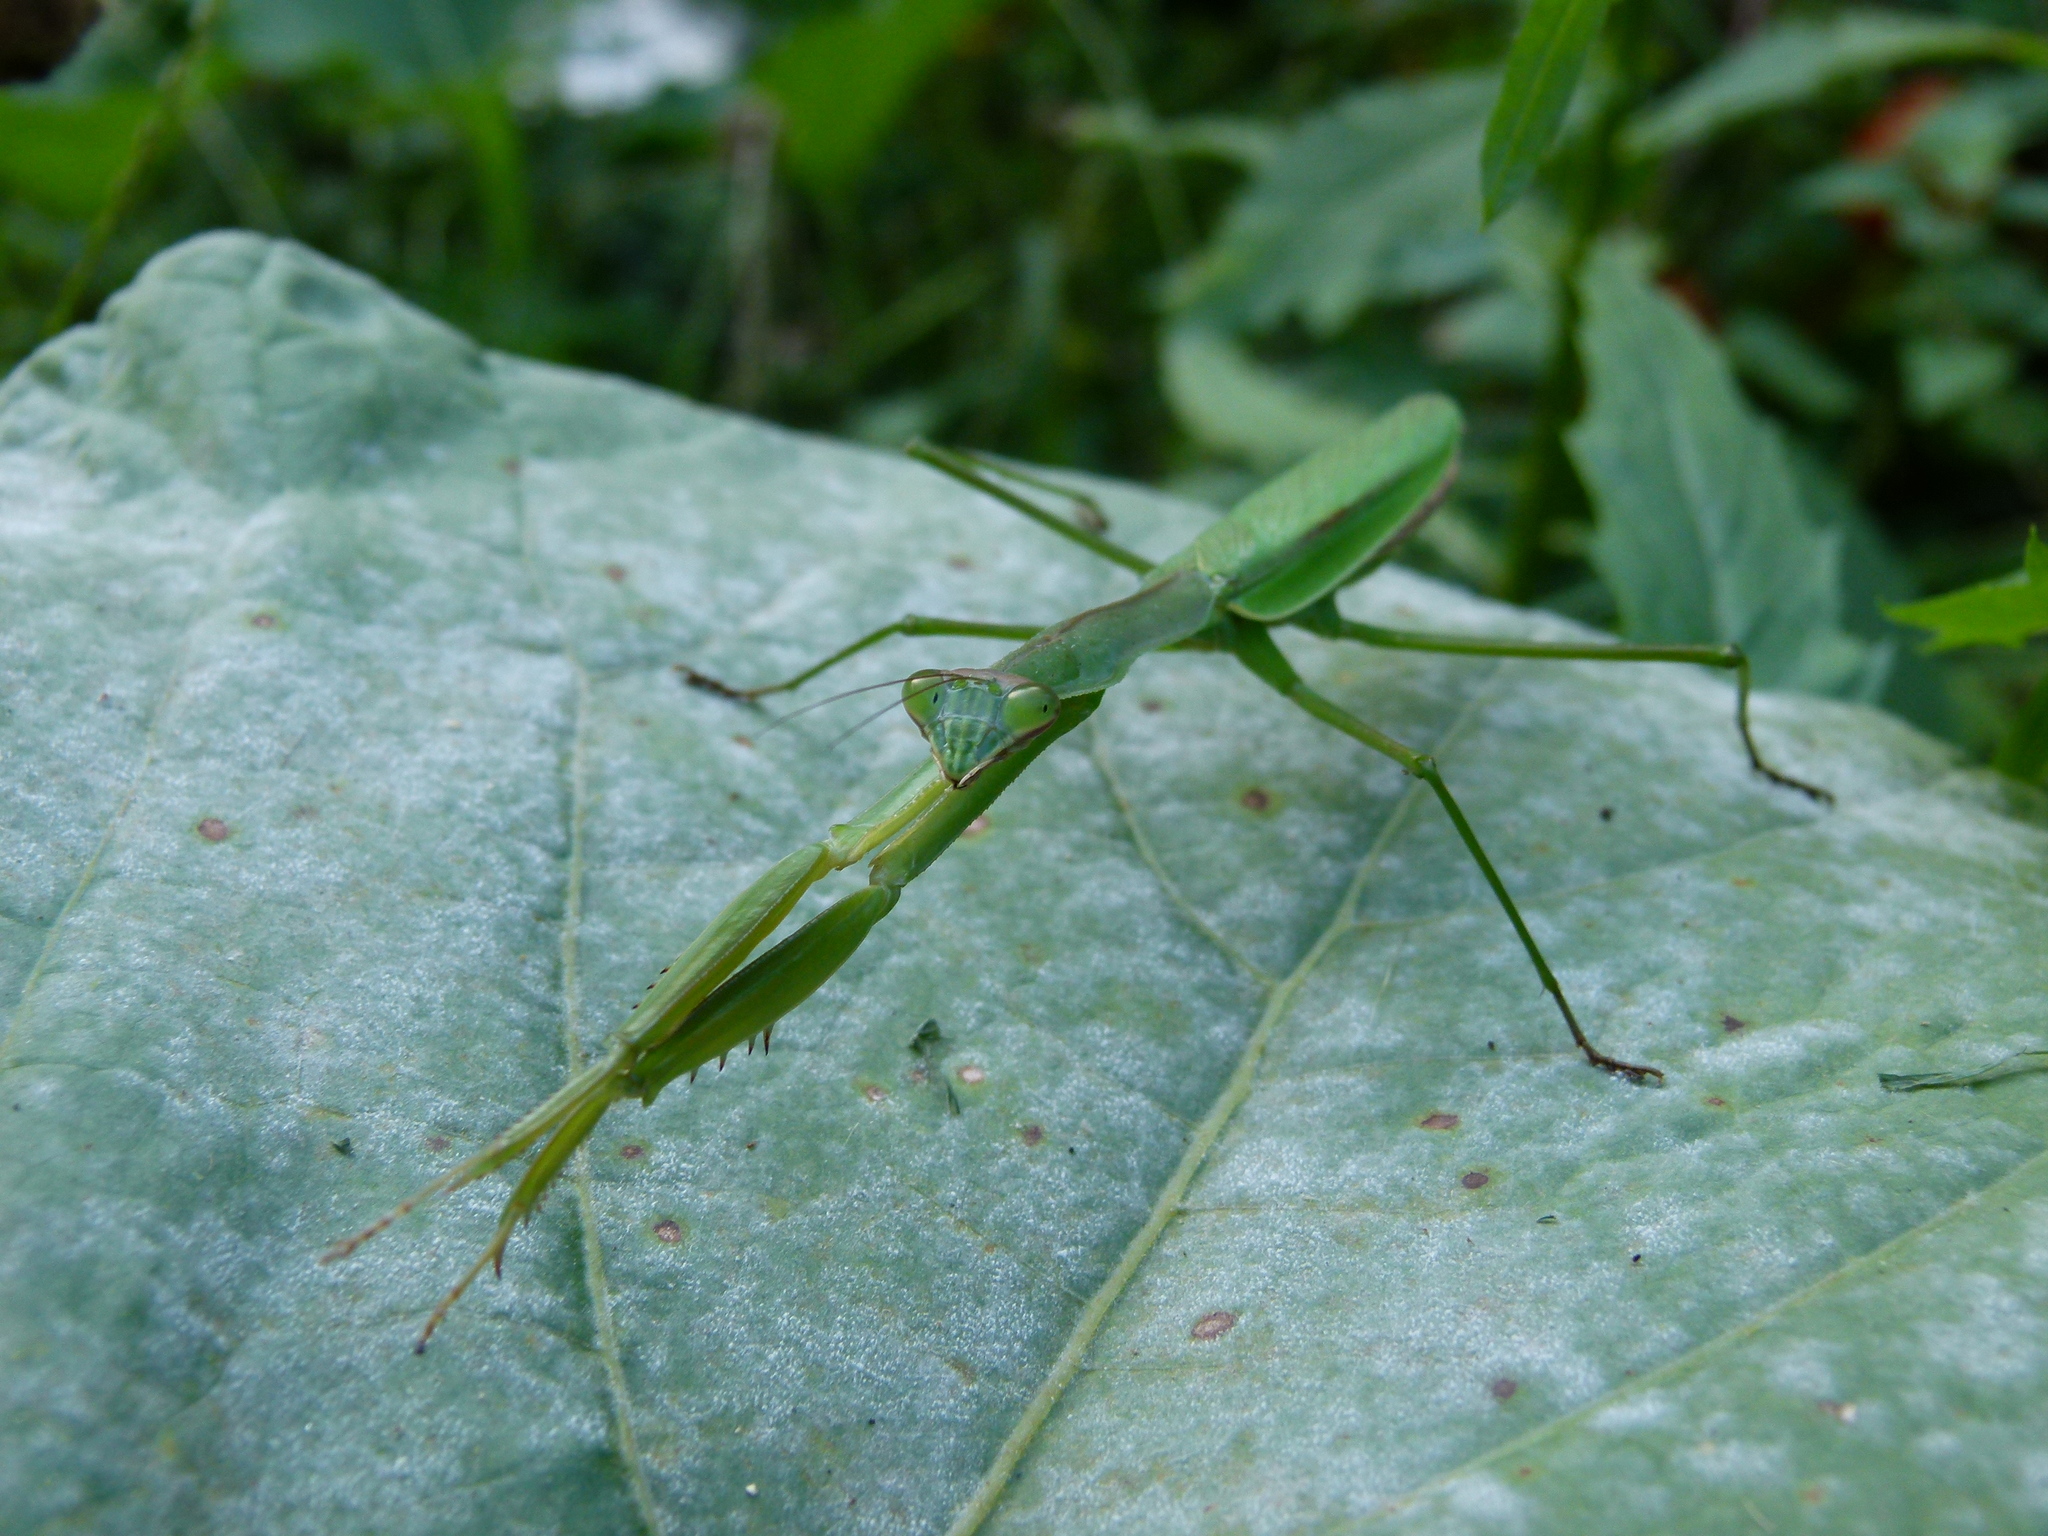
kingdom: Animalia
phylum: Arthropoda
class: Insecta
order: Mantodea
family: Mantidae
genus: Tenodera
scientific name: Tenodera sinensis
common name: Chinese mantis
